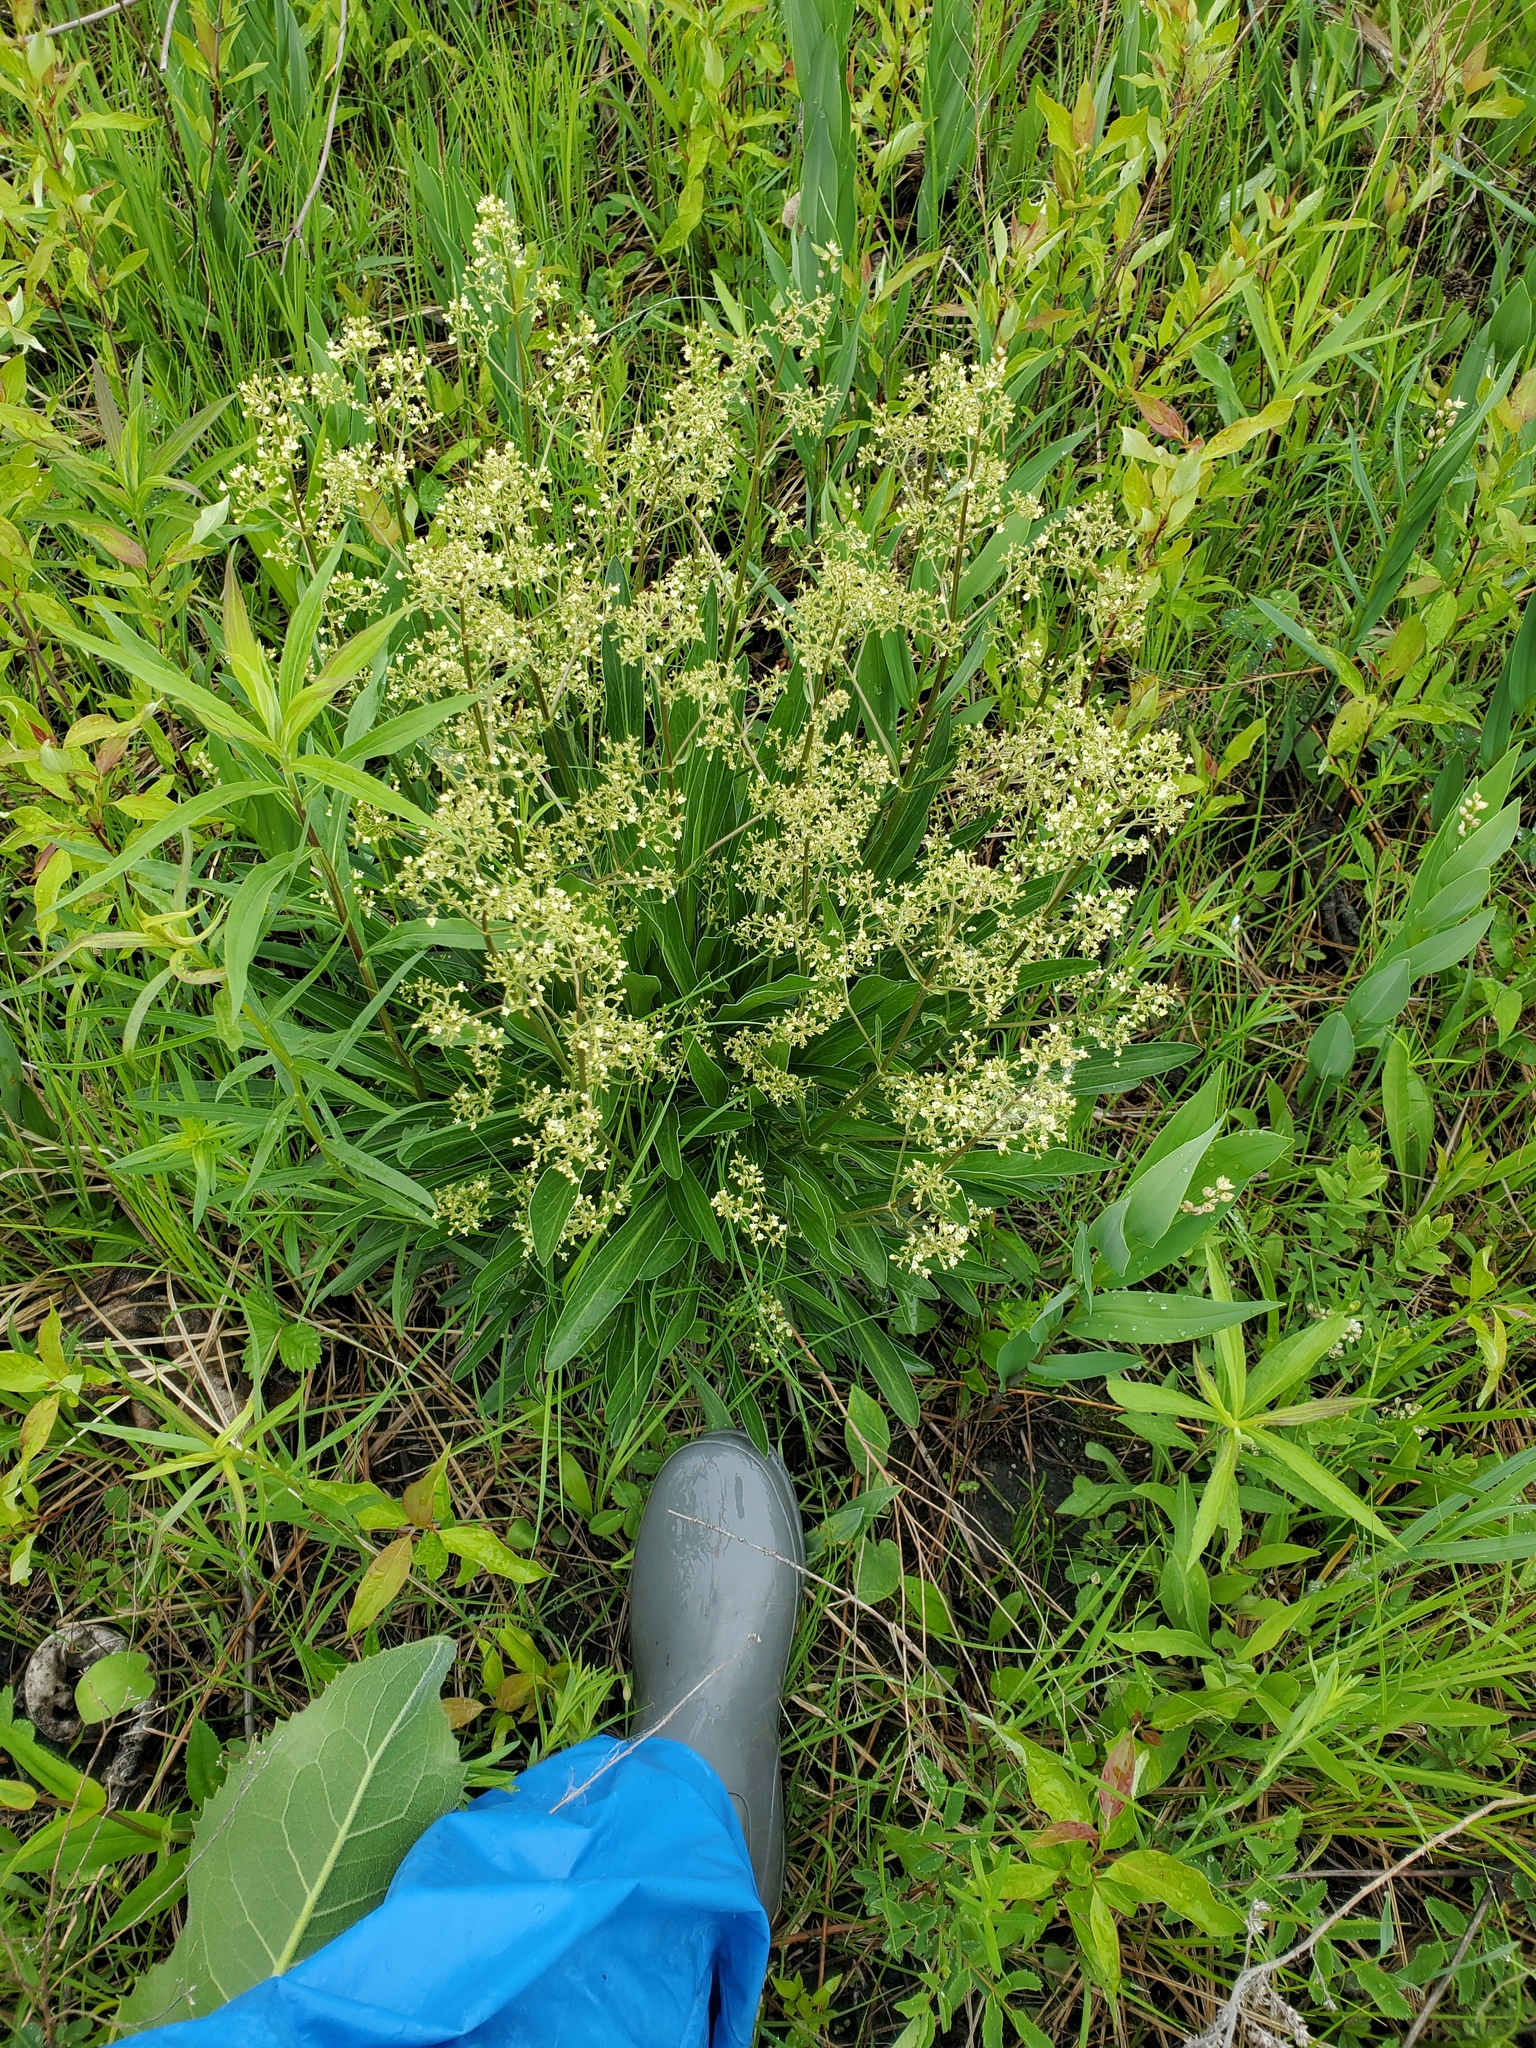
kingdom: Plantae
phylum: Tracheophyta
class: Magnoliopsida
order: Dipsacales
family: Caprifoliaceae
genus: Valeriana
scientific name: Valeriana edulis
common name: Taproot valerian
